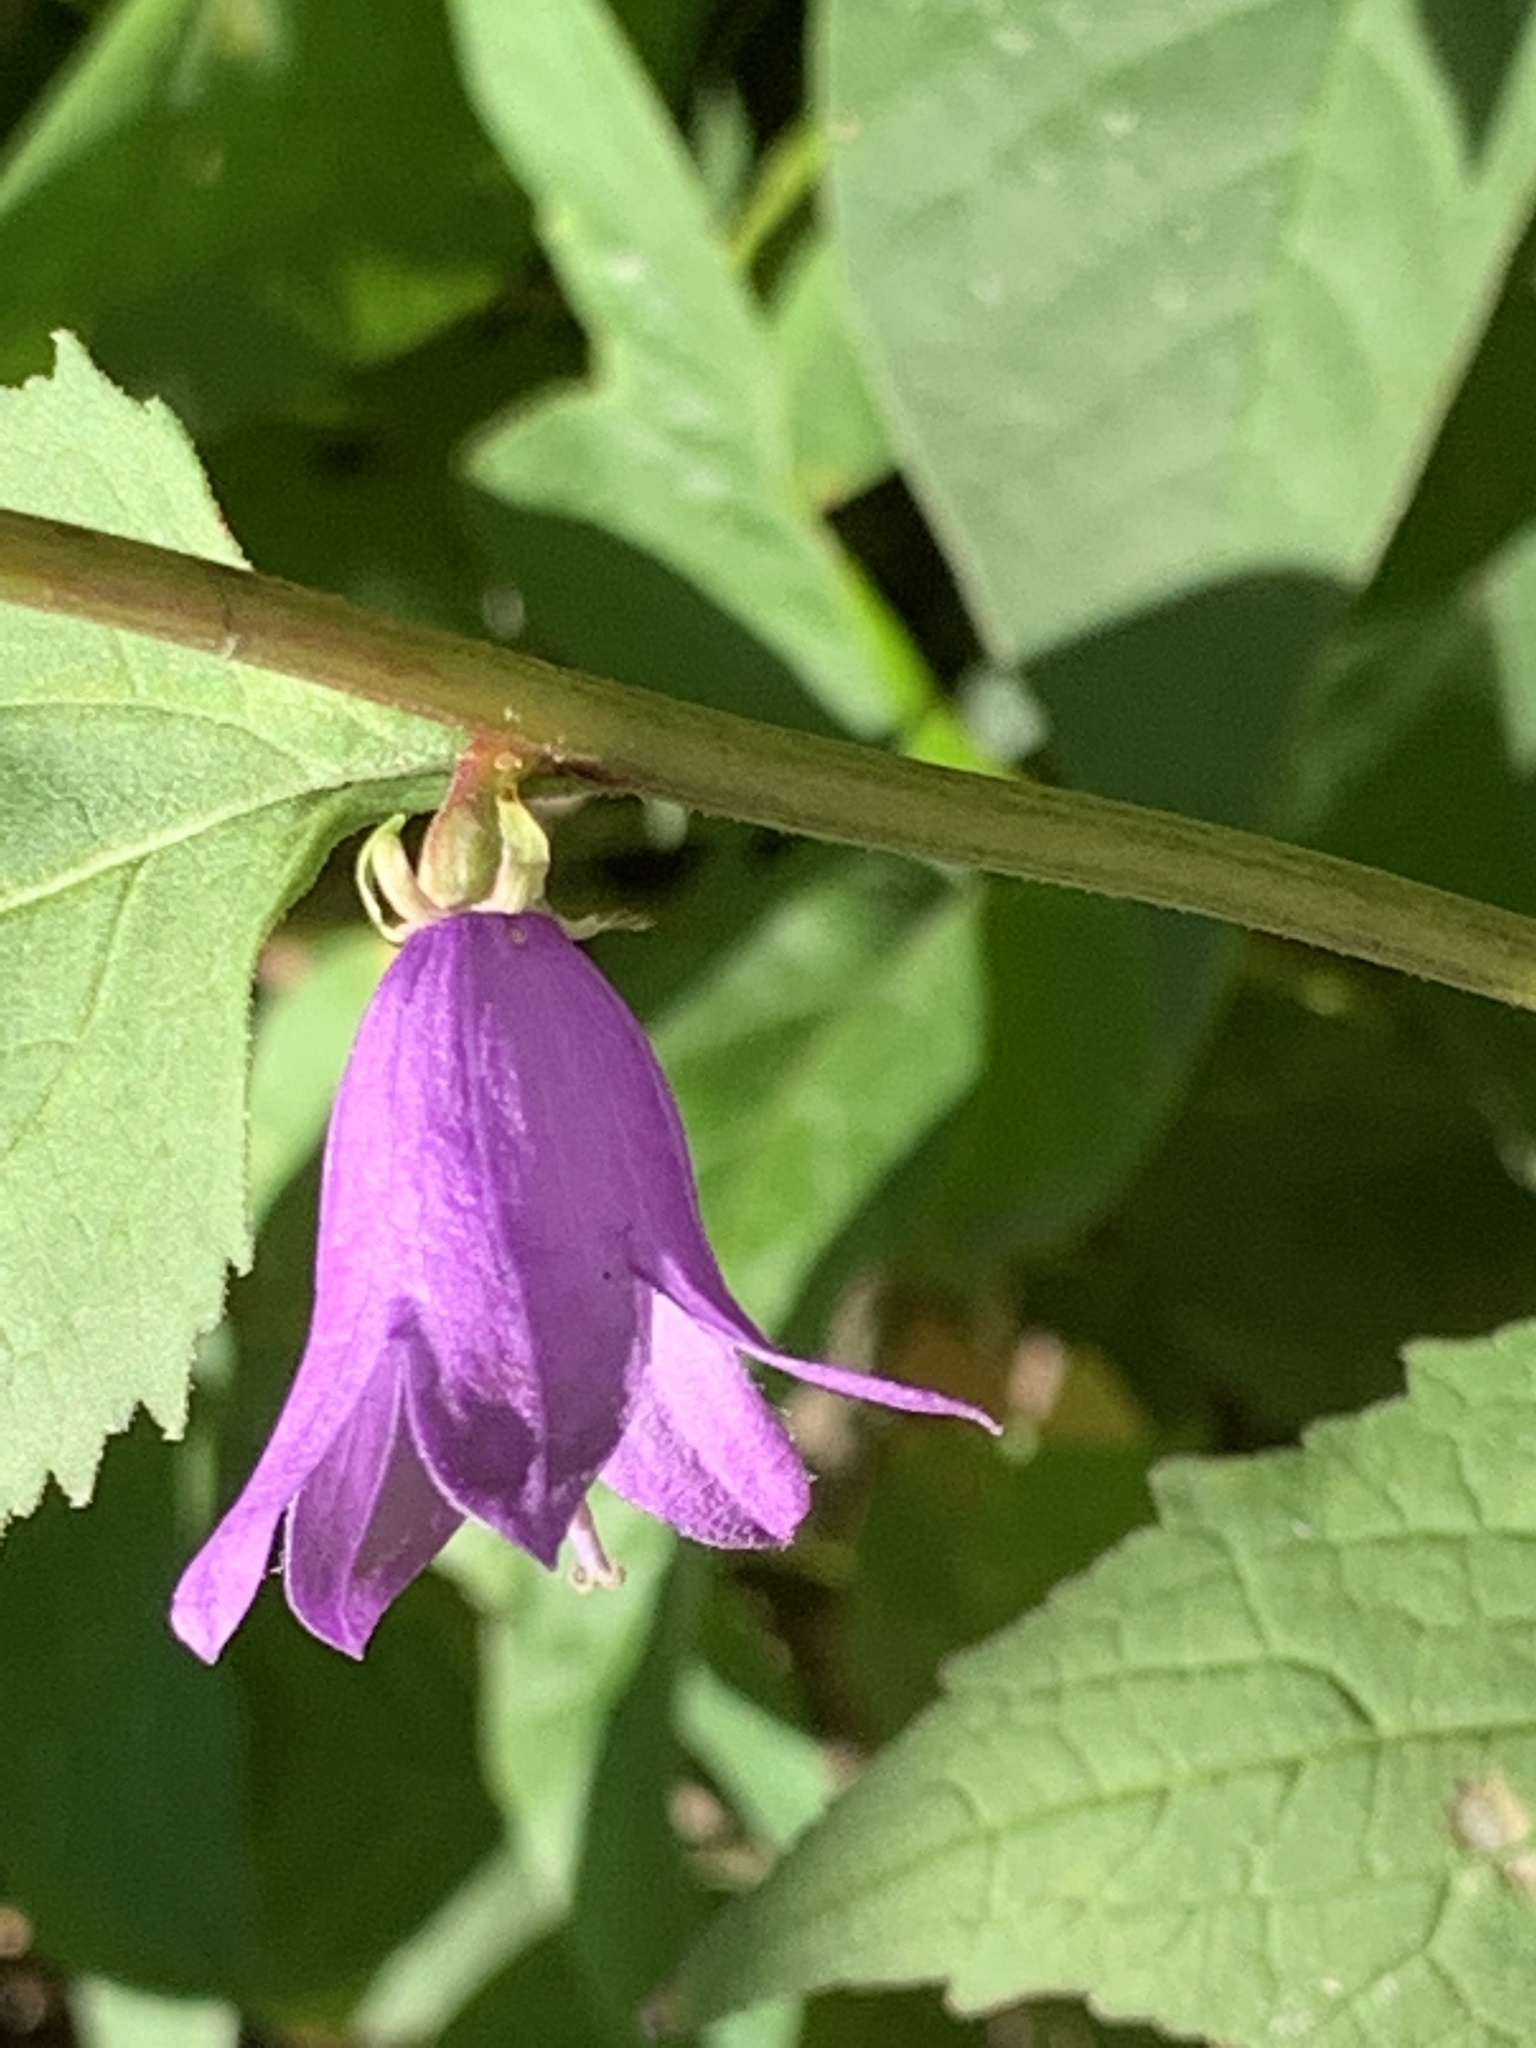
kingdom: Plantae
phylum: Tracheophyta
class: Magnoliopsida
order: Asterales
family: Campanulaceae
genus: Campanula
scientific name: Campanula rapunculoides
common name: Creeping bellflower
